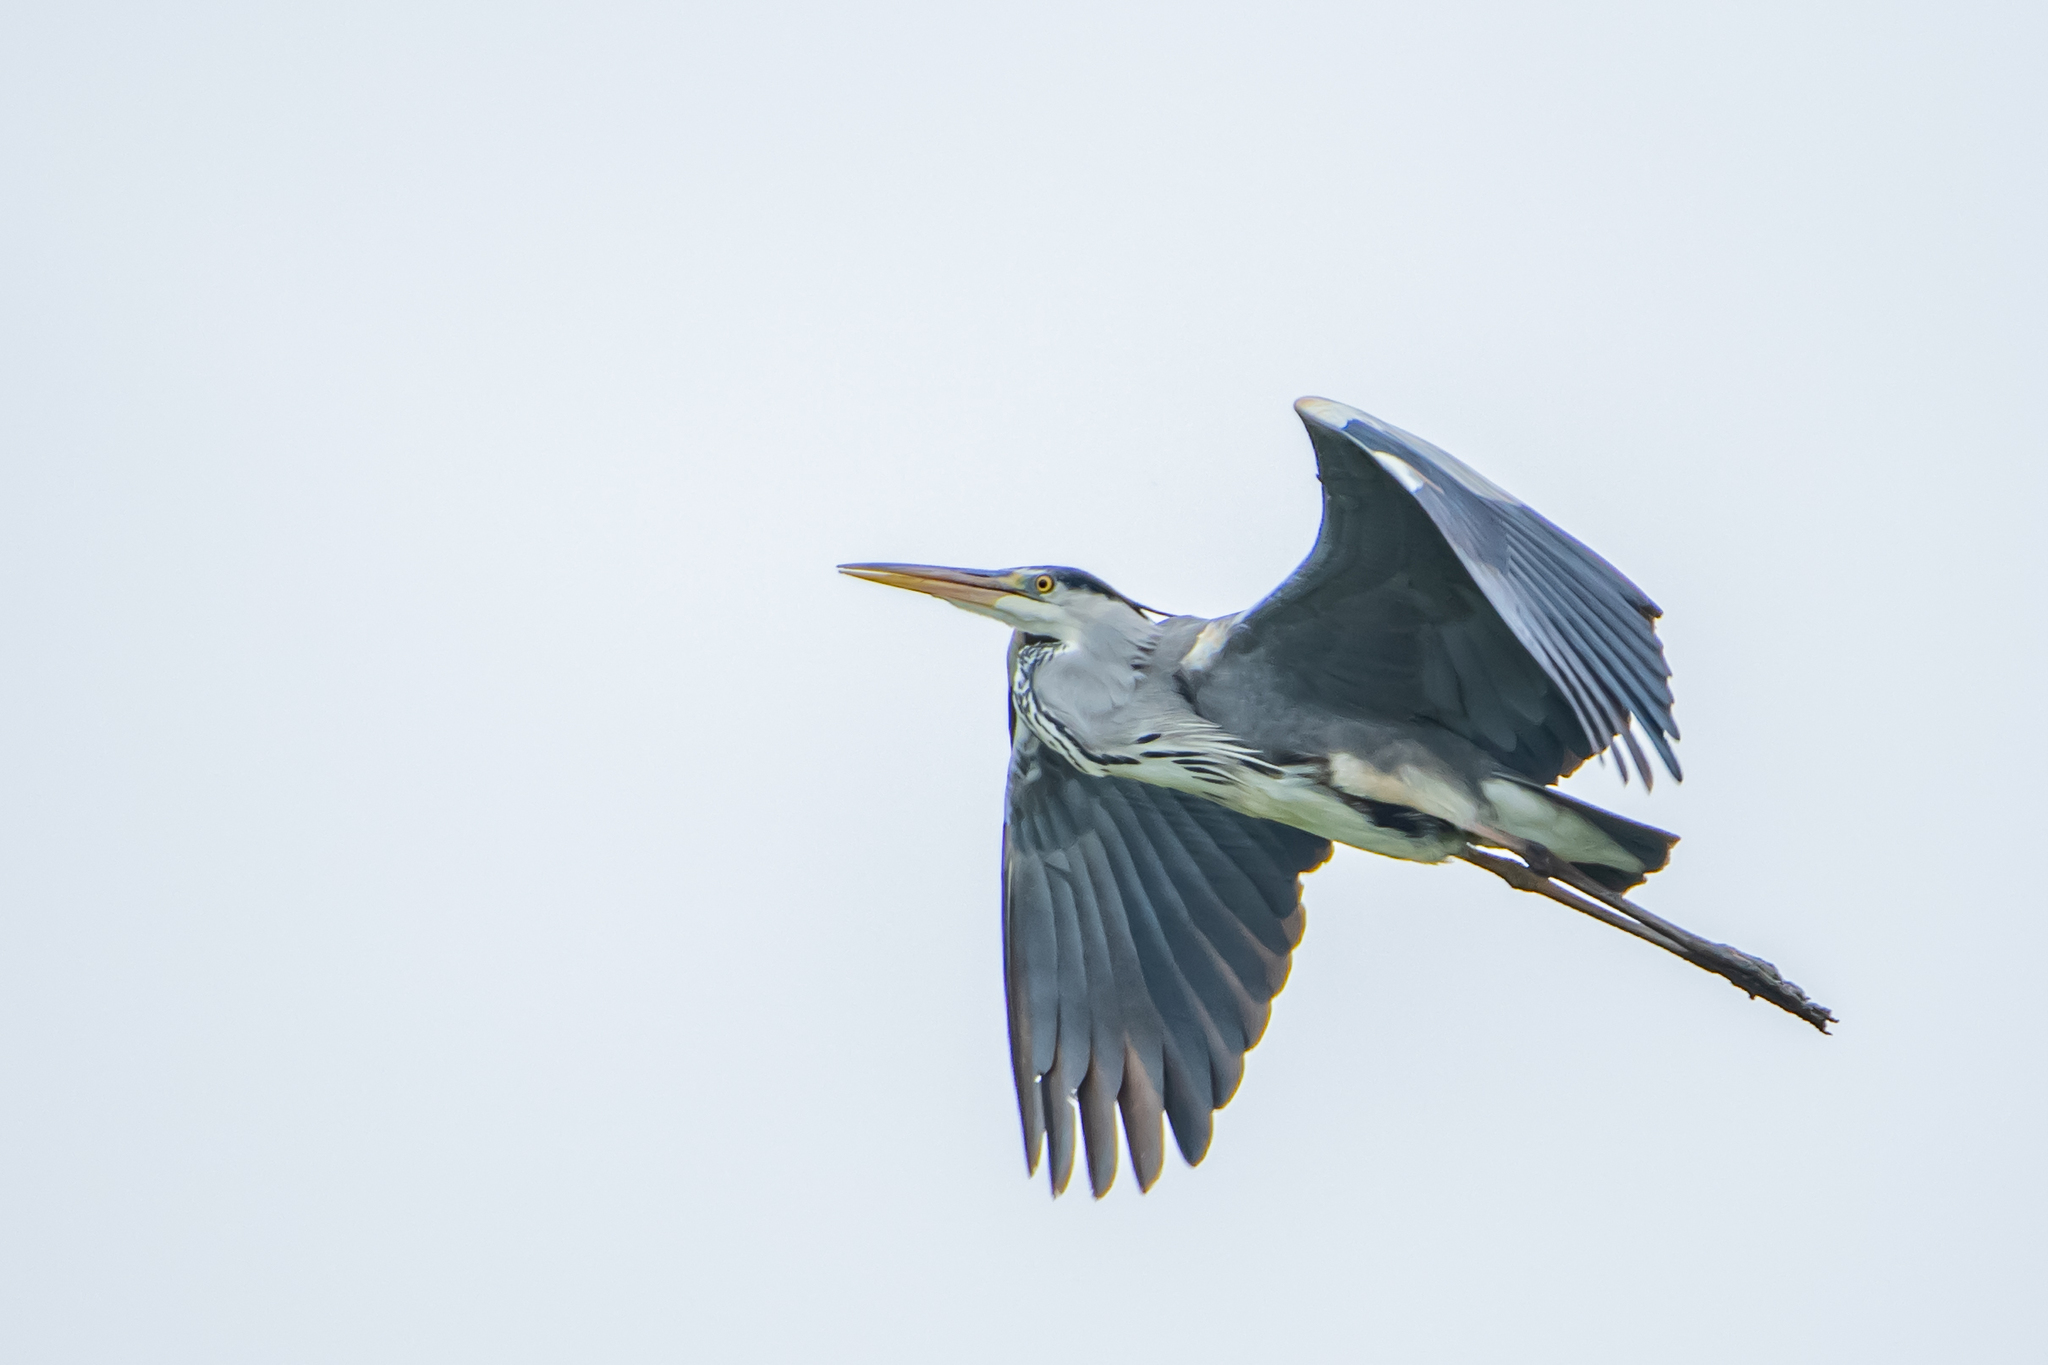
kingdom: Animalia
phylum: Chordata
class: Aves
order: Pelecaniformes
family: Ardeidae
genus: Ardea
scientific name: Ardea cinerea
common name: Grey heron
